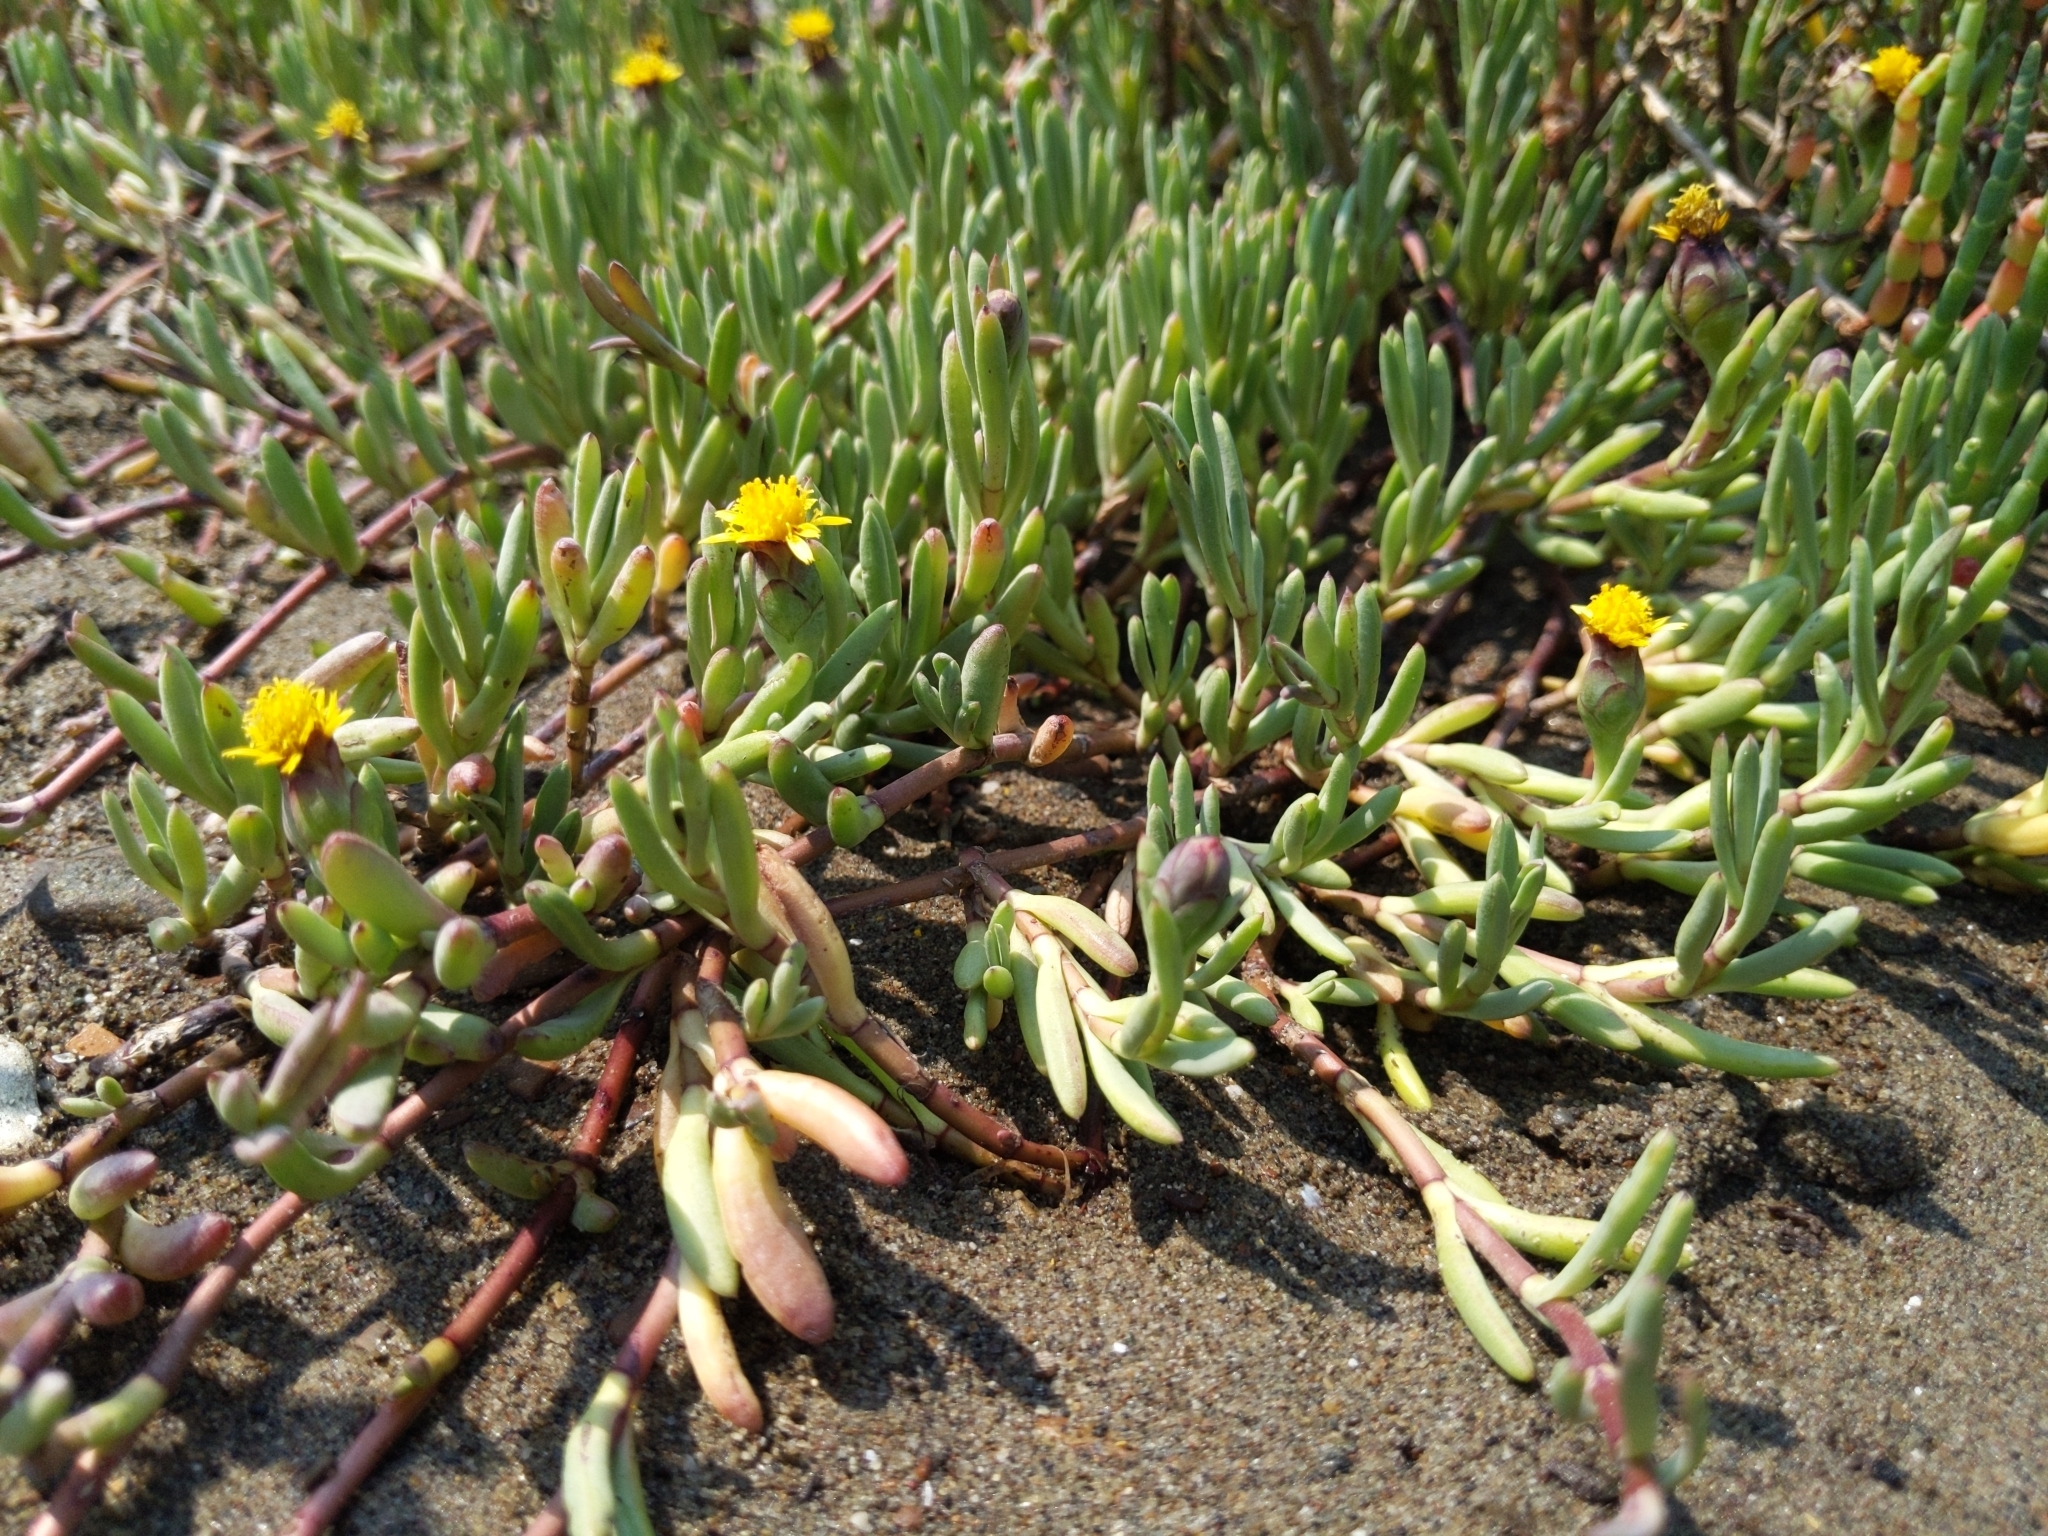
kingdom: Plantae
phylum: Tracheophyta
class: Magnoliopsida
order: Asterales
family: Asteraceae
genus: Jaumea
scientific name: Jaumea carnosa
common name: Fleshy jaumea
